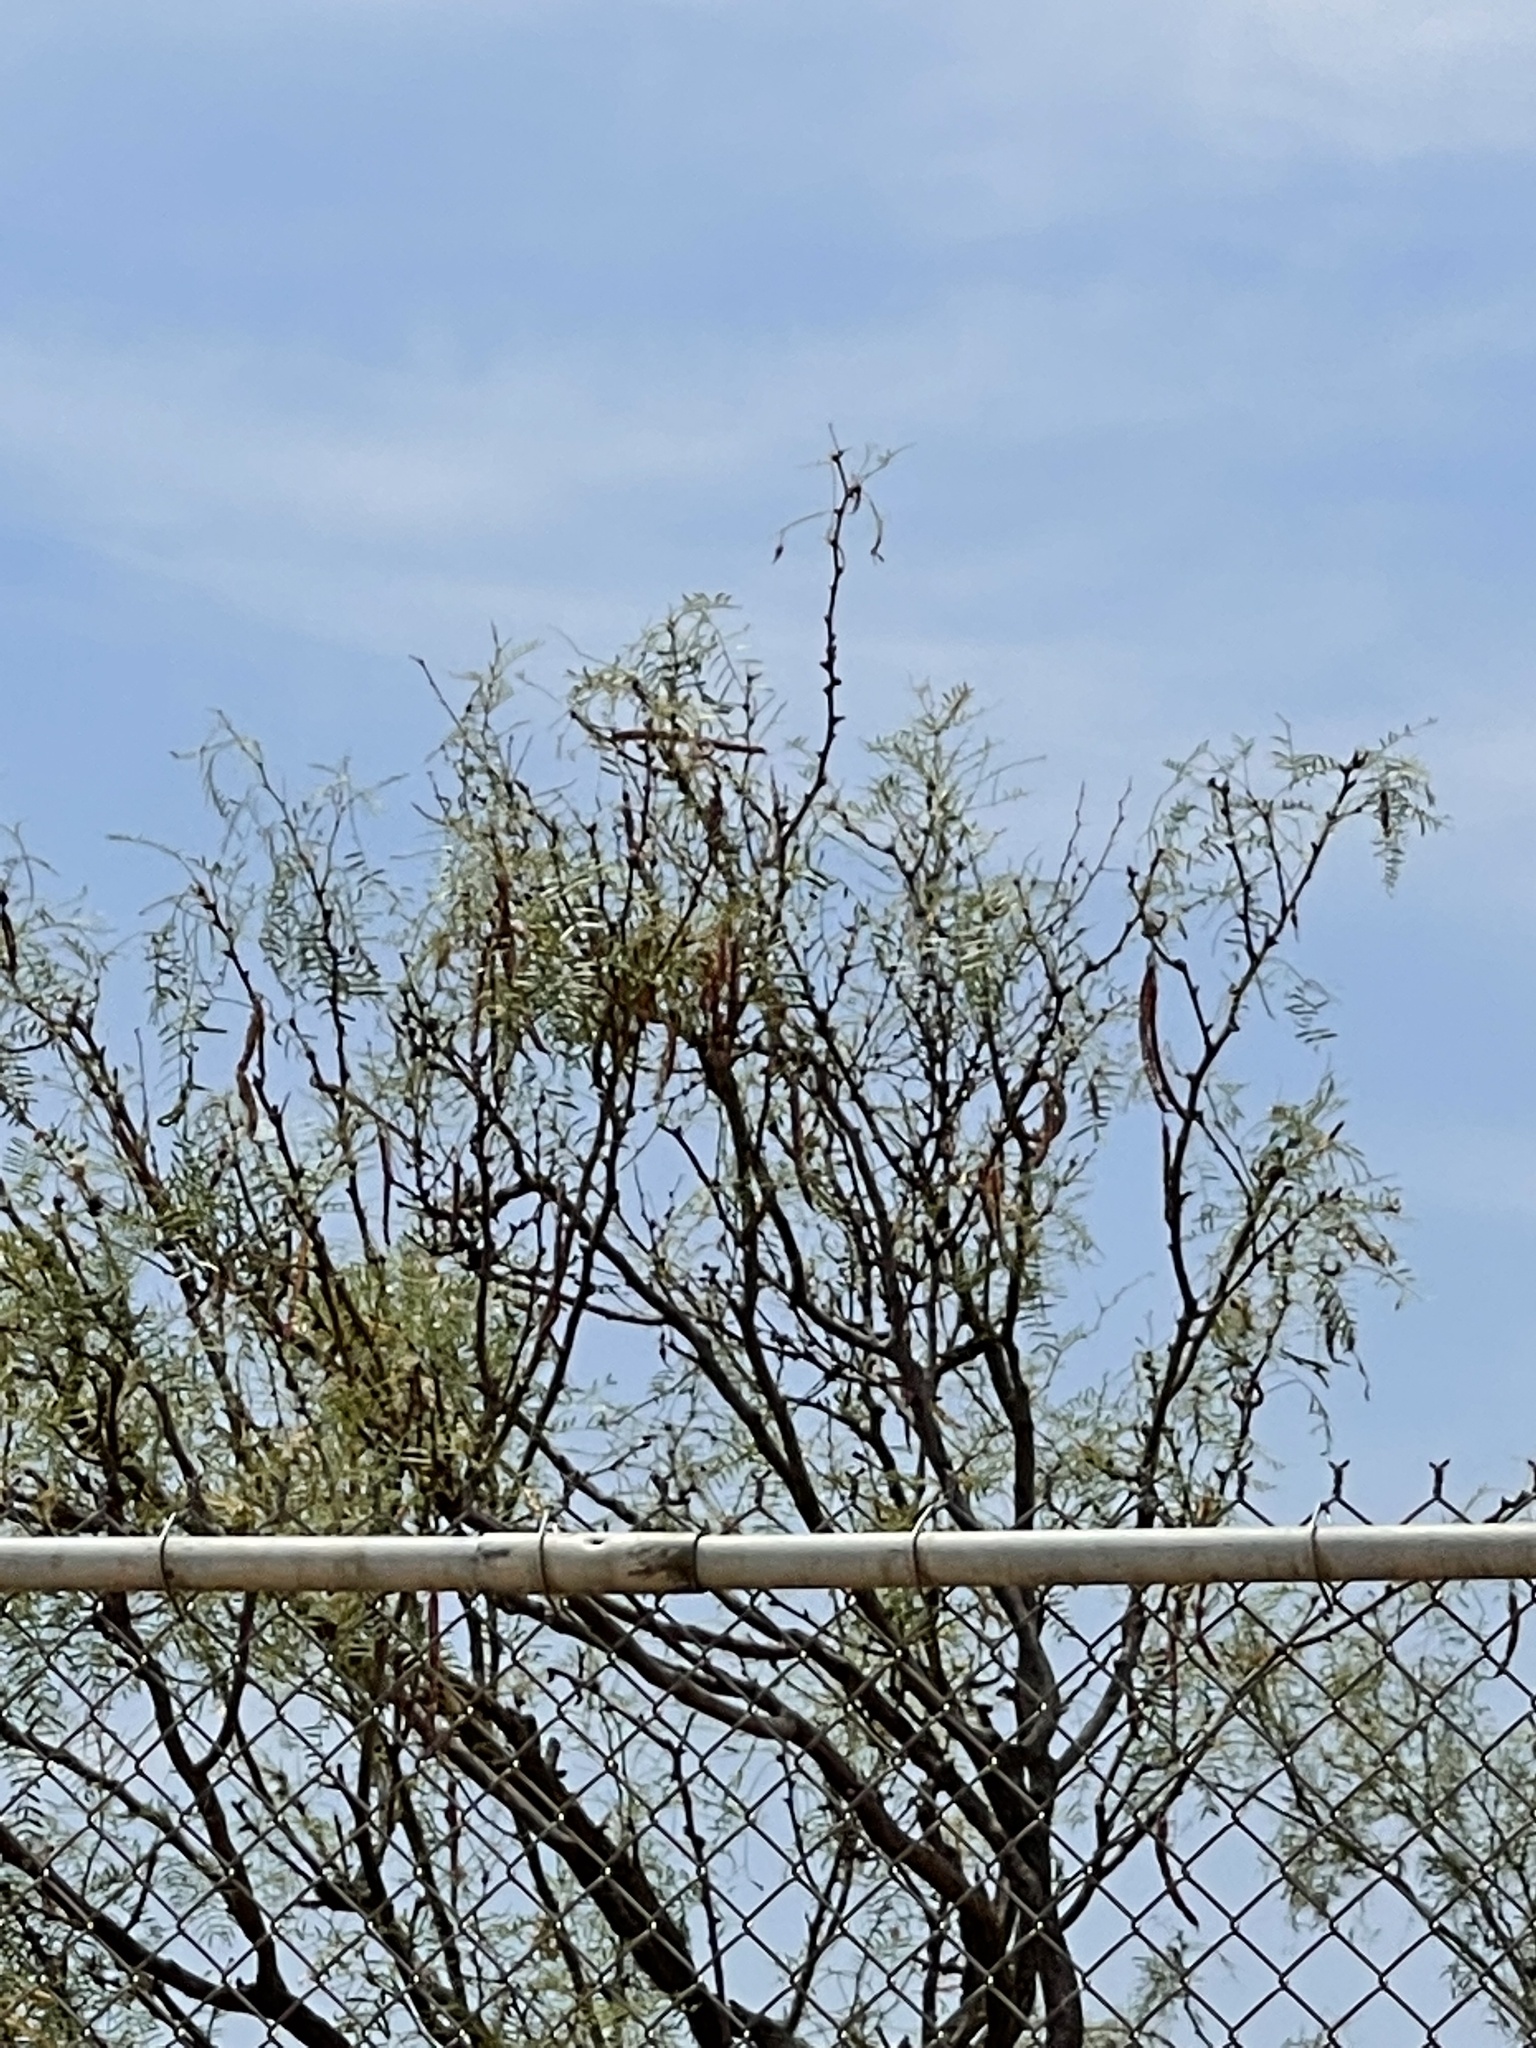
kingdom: Plantae
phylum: Tracheophyta
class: Magnoliopsida
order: Fabales
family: Fabaceae
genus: Prosopis
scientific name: Prosopis glandulosa
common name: Honey mesquite
